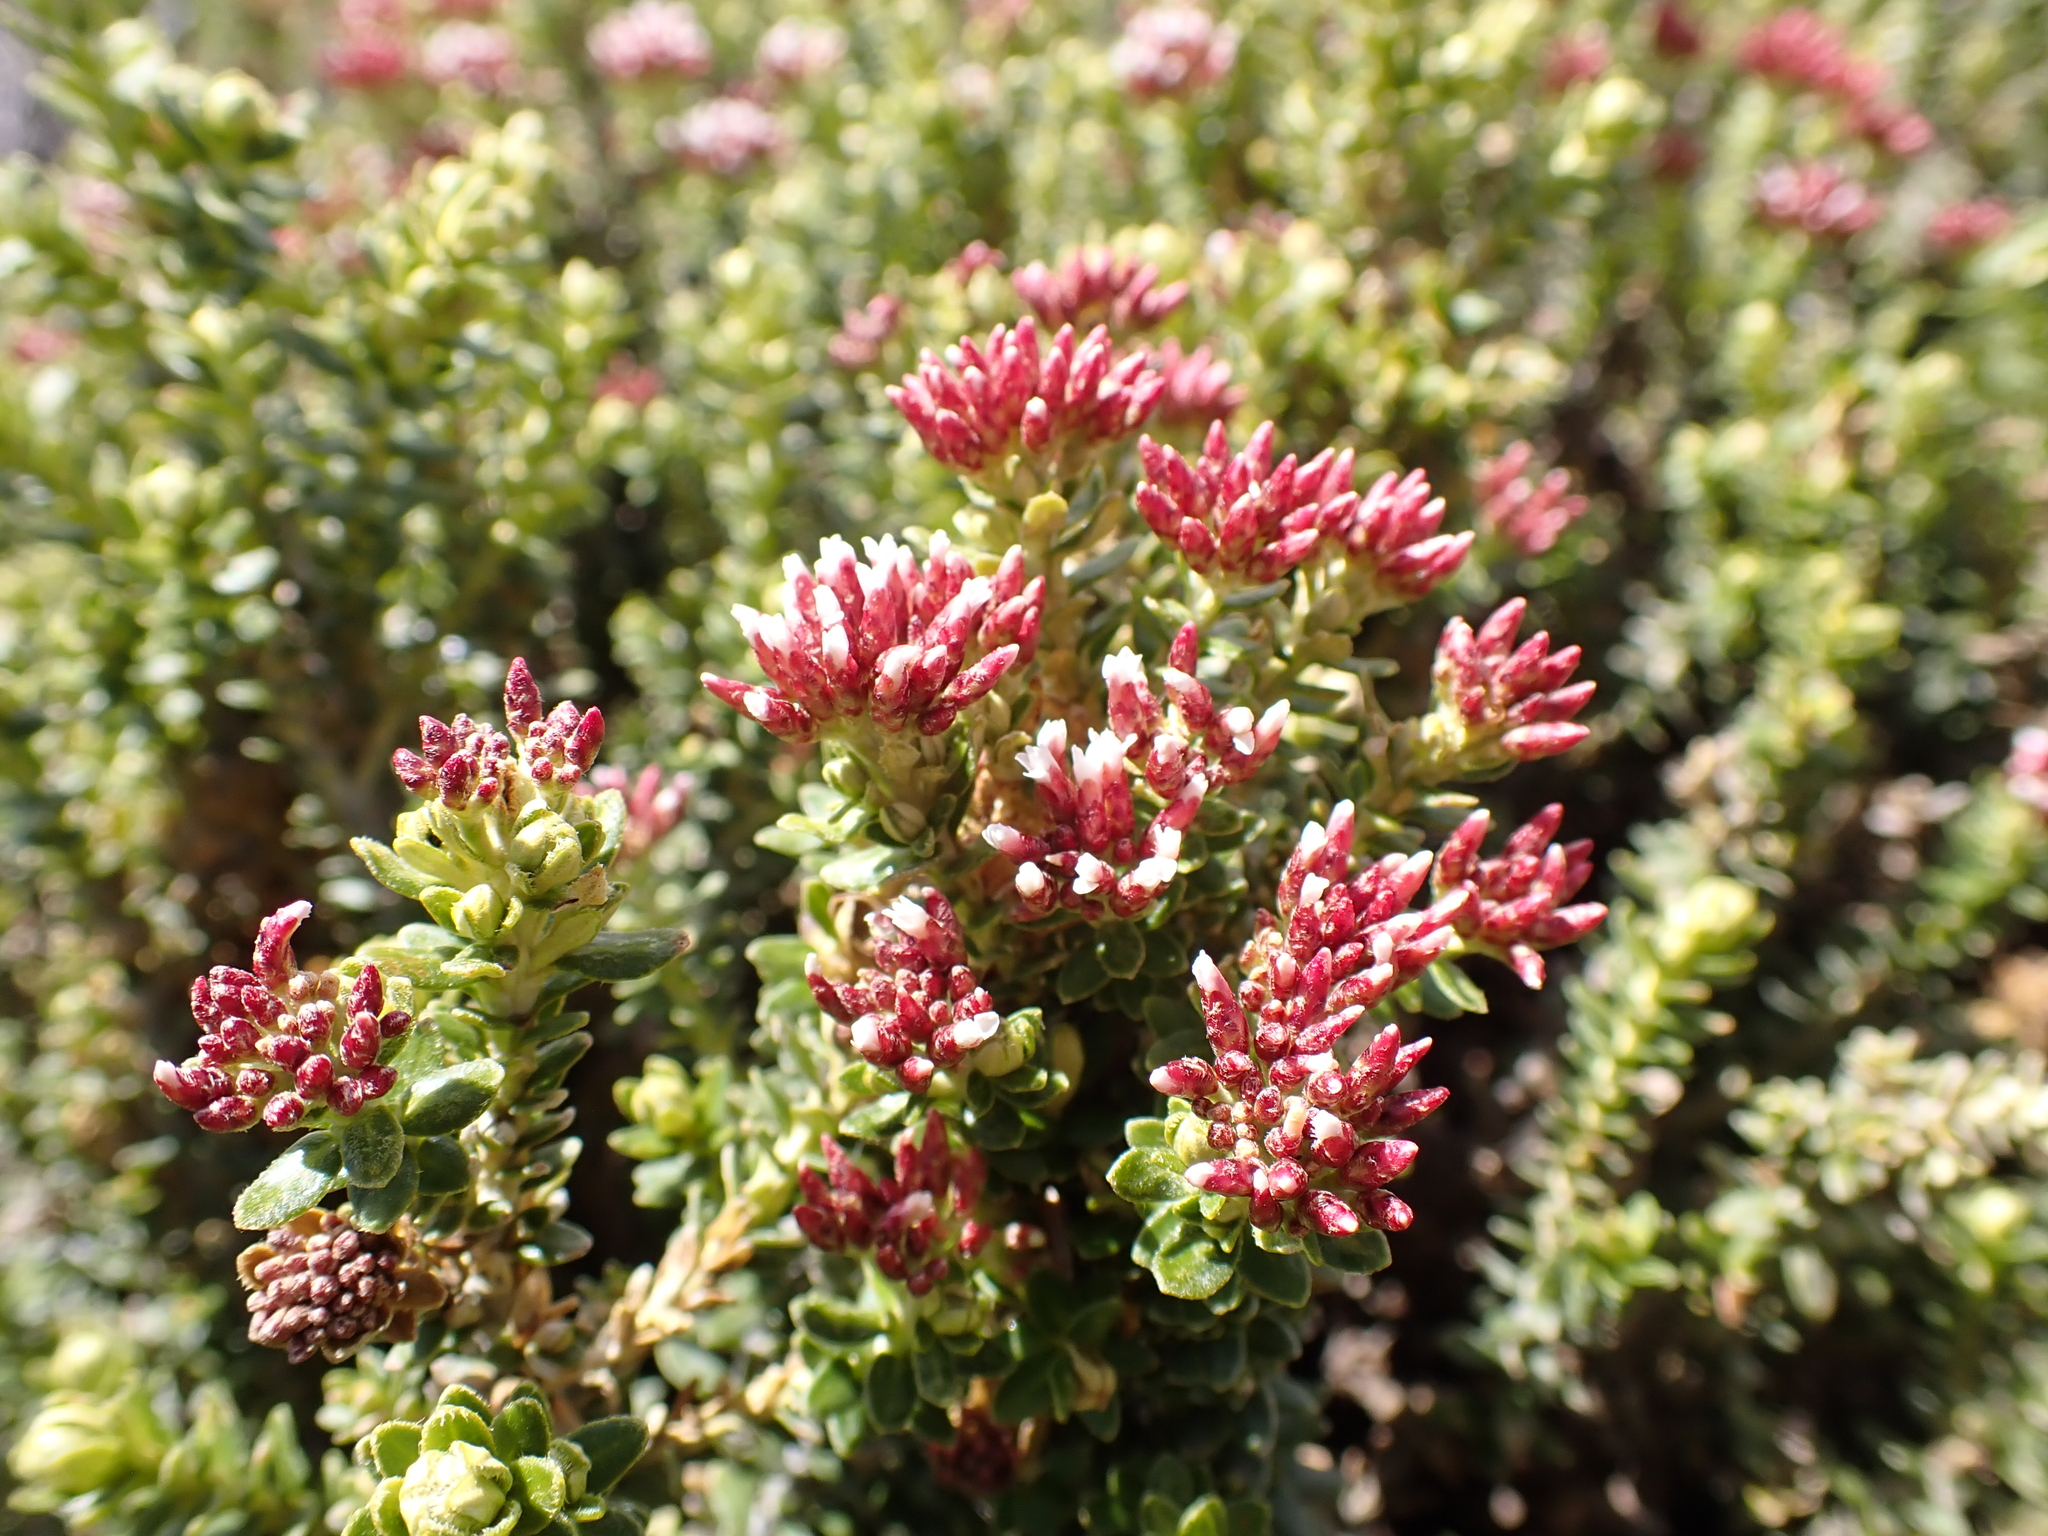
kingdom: Plantae
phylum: Tracheophyta
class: Magnoliopsida
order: Asterales
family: Asteraceae
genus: Ozothamnus
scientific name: Ozothamnus alpinus
